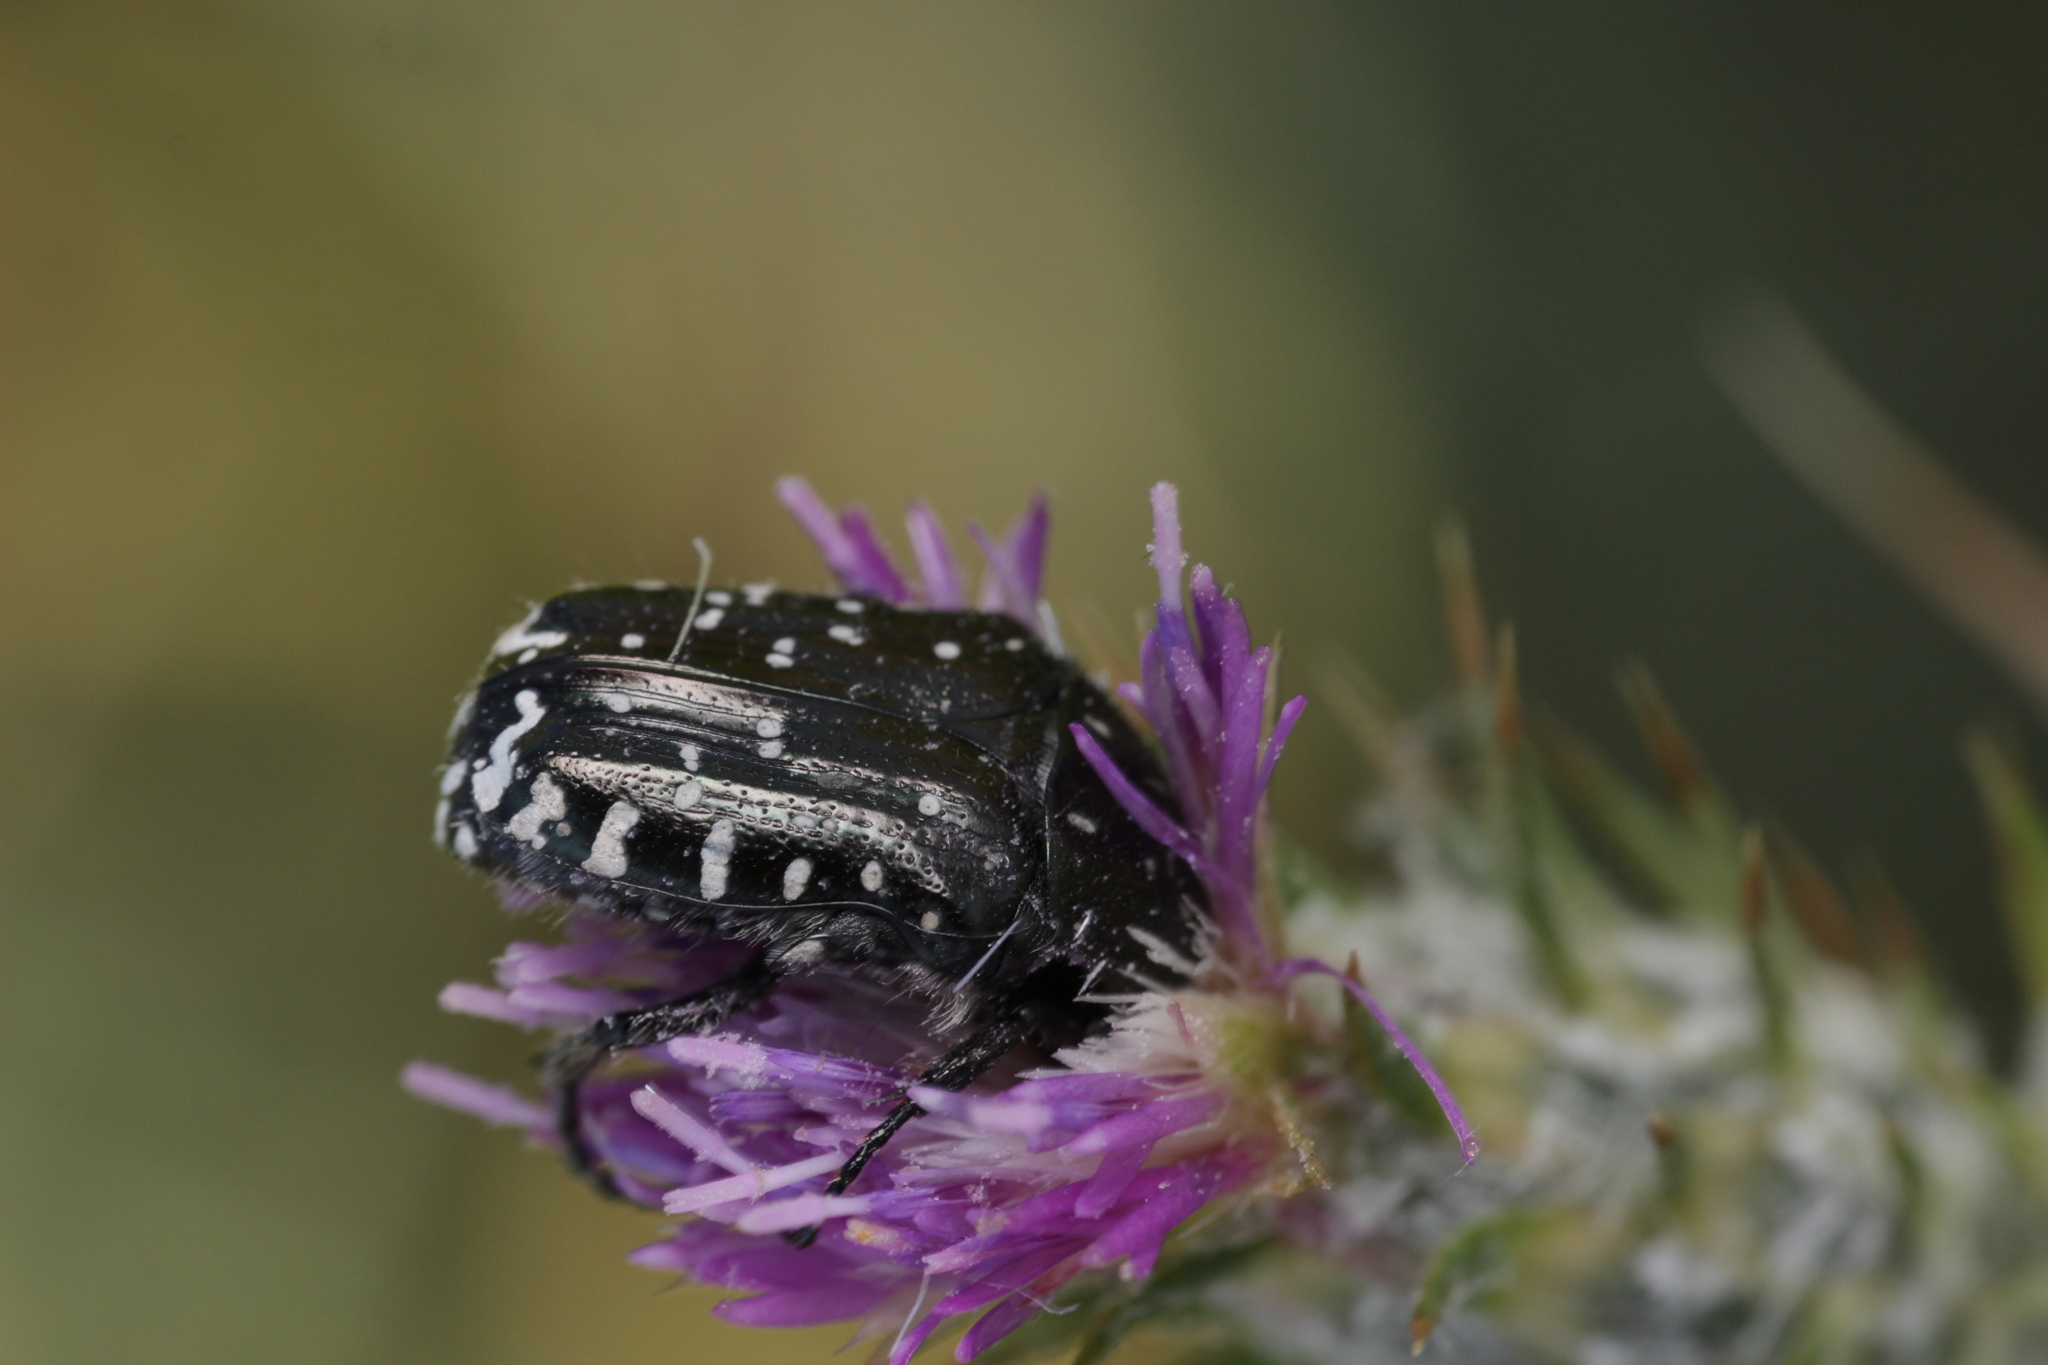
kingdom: Animalia
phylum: Arthropoda
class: Insecta
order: Coleoptera
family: Scarabaeidae
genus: Oxythyrea
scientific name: Oxythyrea funesta
